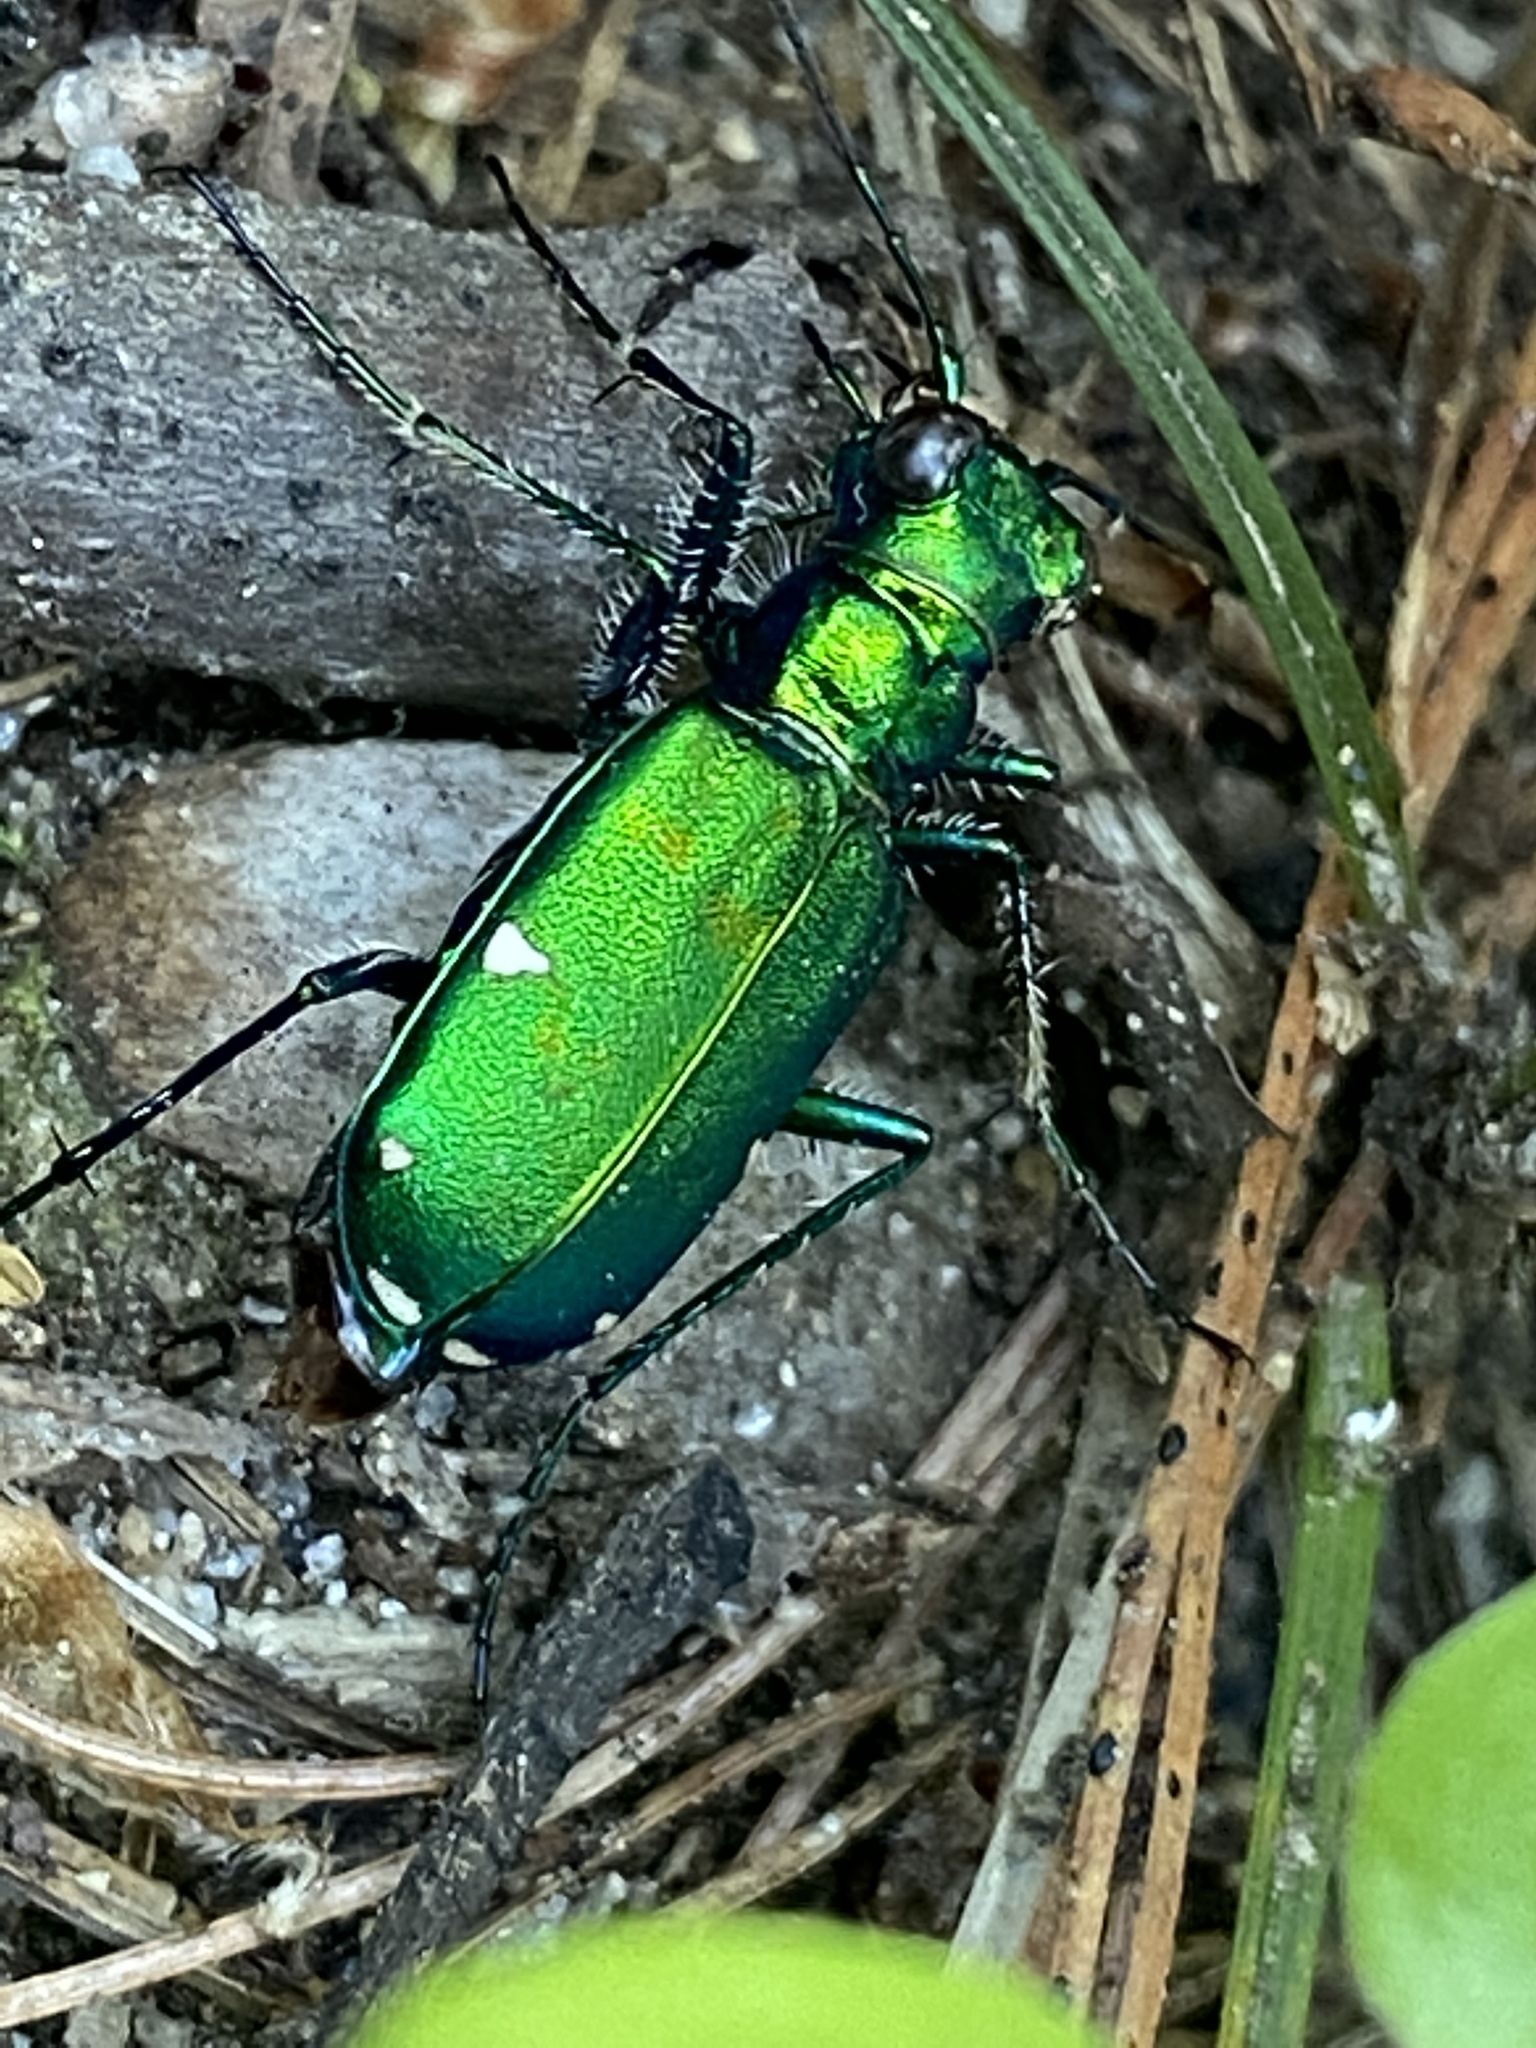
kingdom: Animalia
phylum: Arthropoda
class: Insecta
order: Coleoptera
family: Carabidae
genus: Cicindela
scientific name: Cicindela sexguttata
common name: Six-spotted tiger beetle
